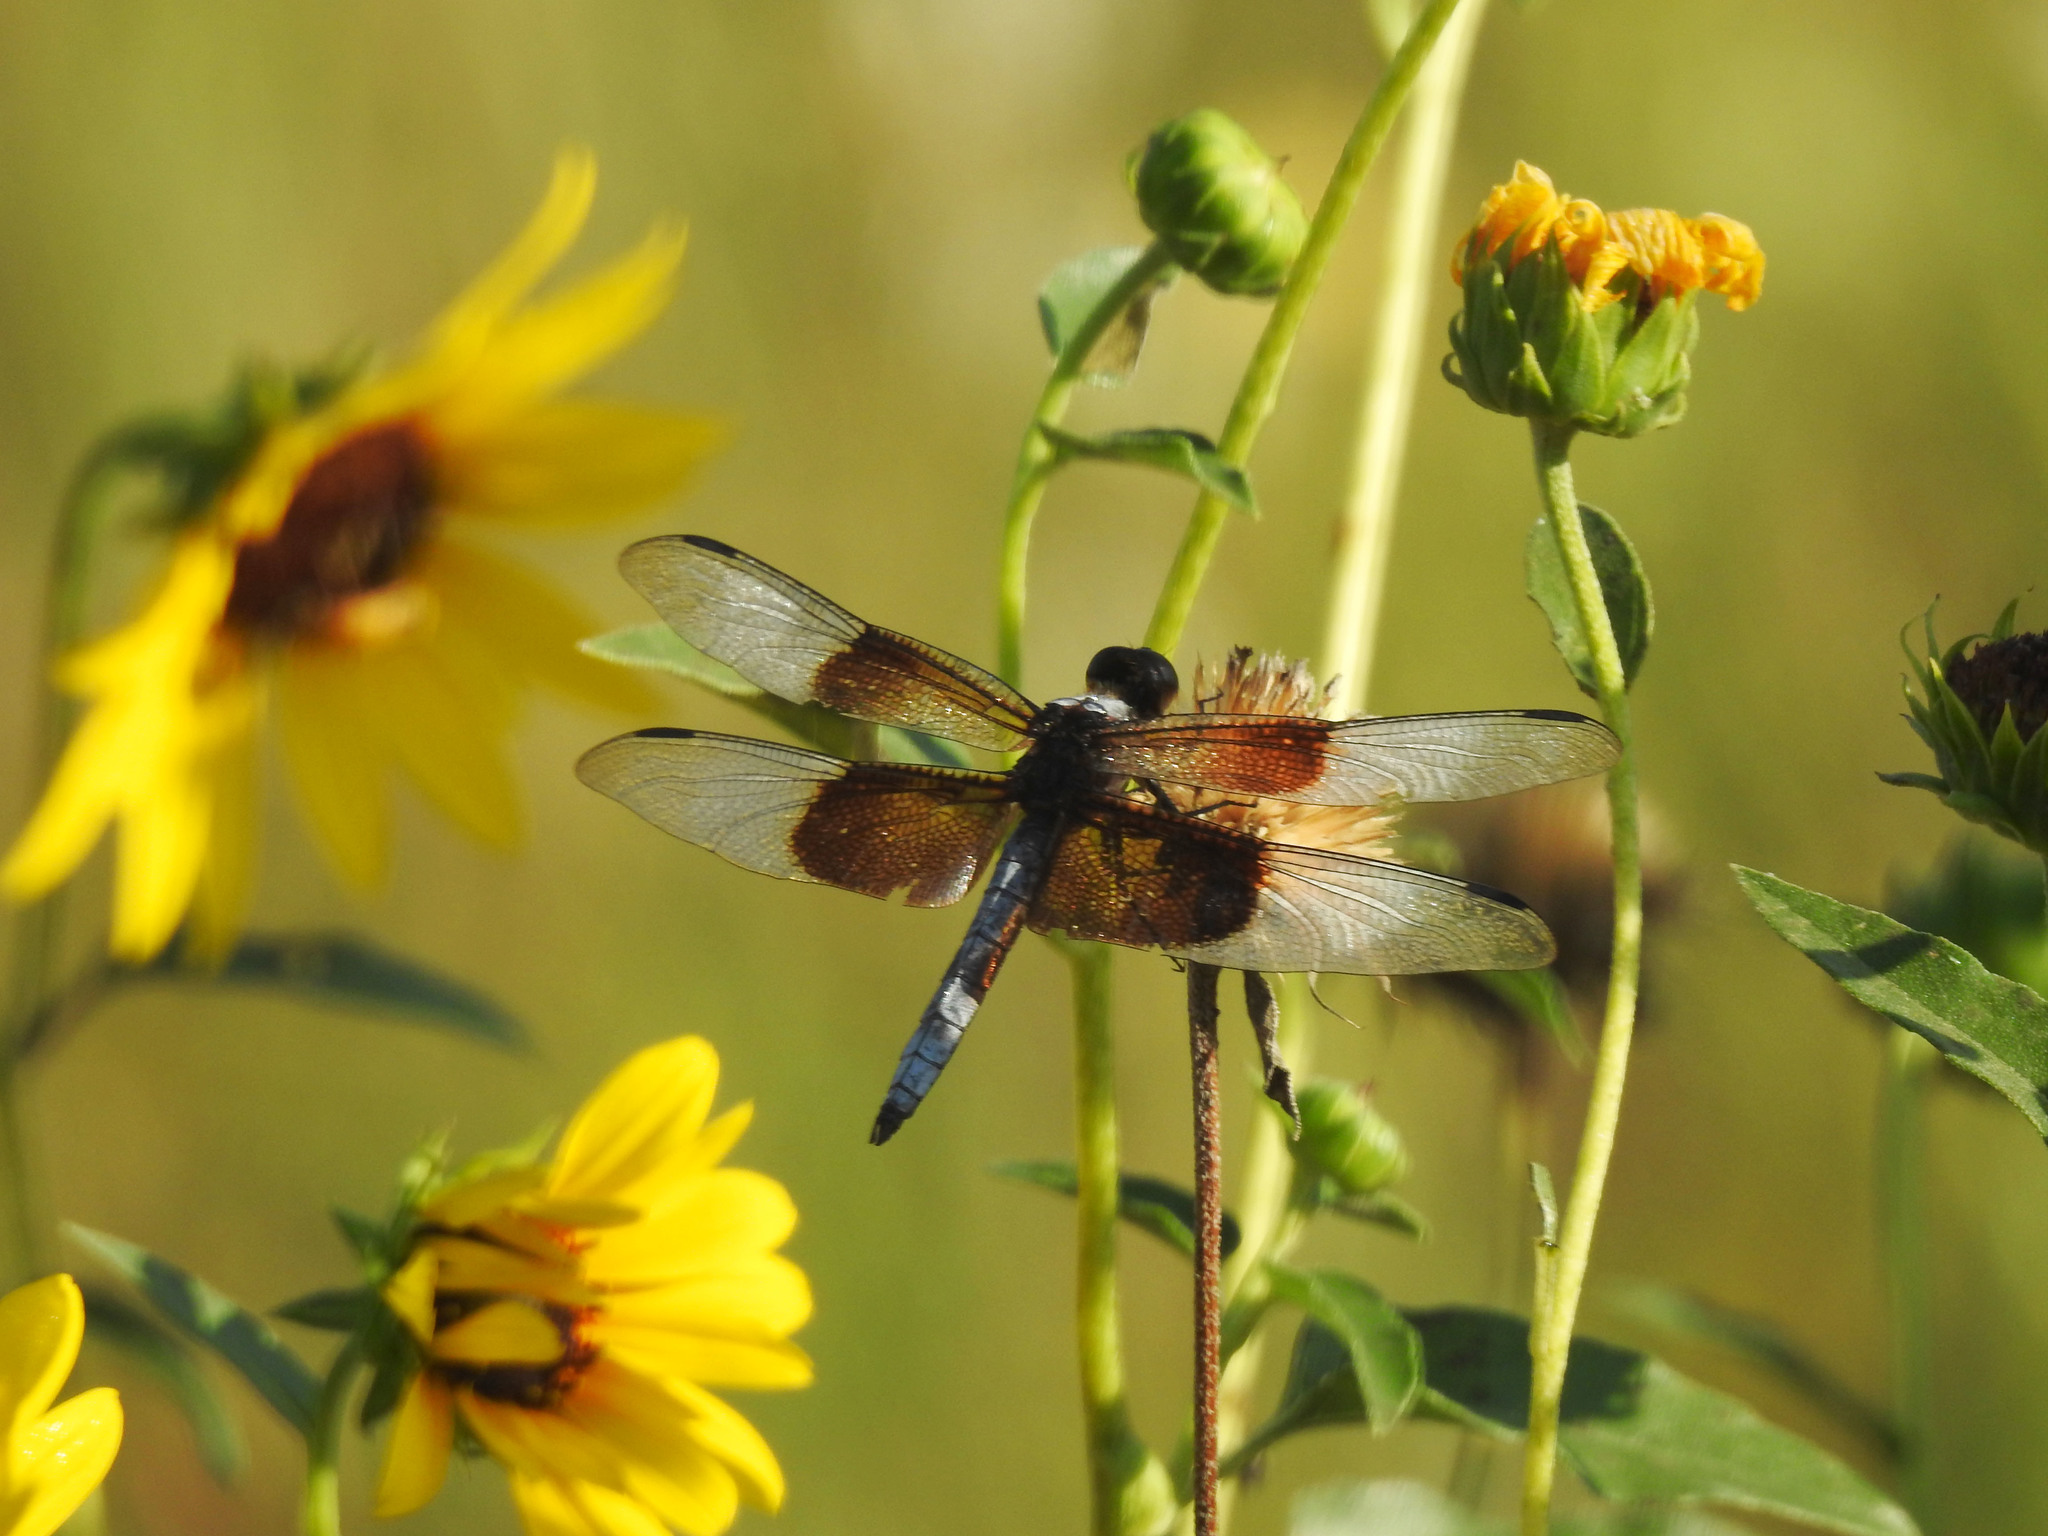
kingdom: Animalia
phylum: Arthropoda
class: Insecta
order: Odonata
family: Libellulidae
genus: Libellula
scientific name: Libellula luctuosa
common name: Widow skimmer
